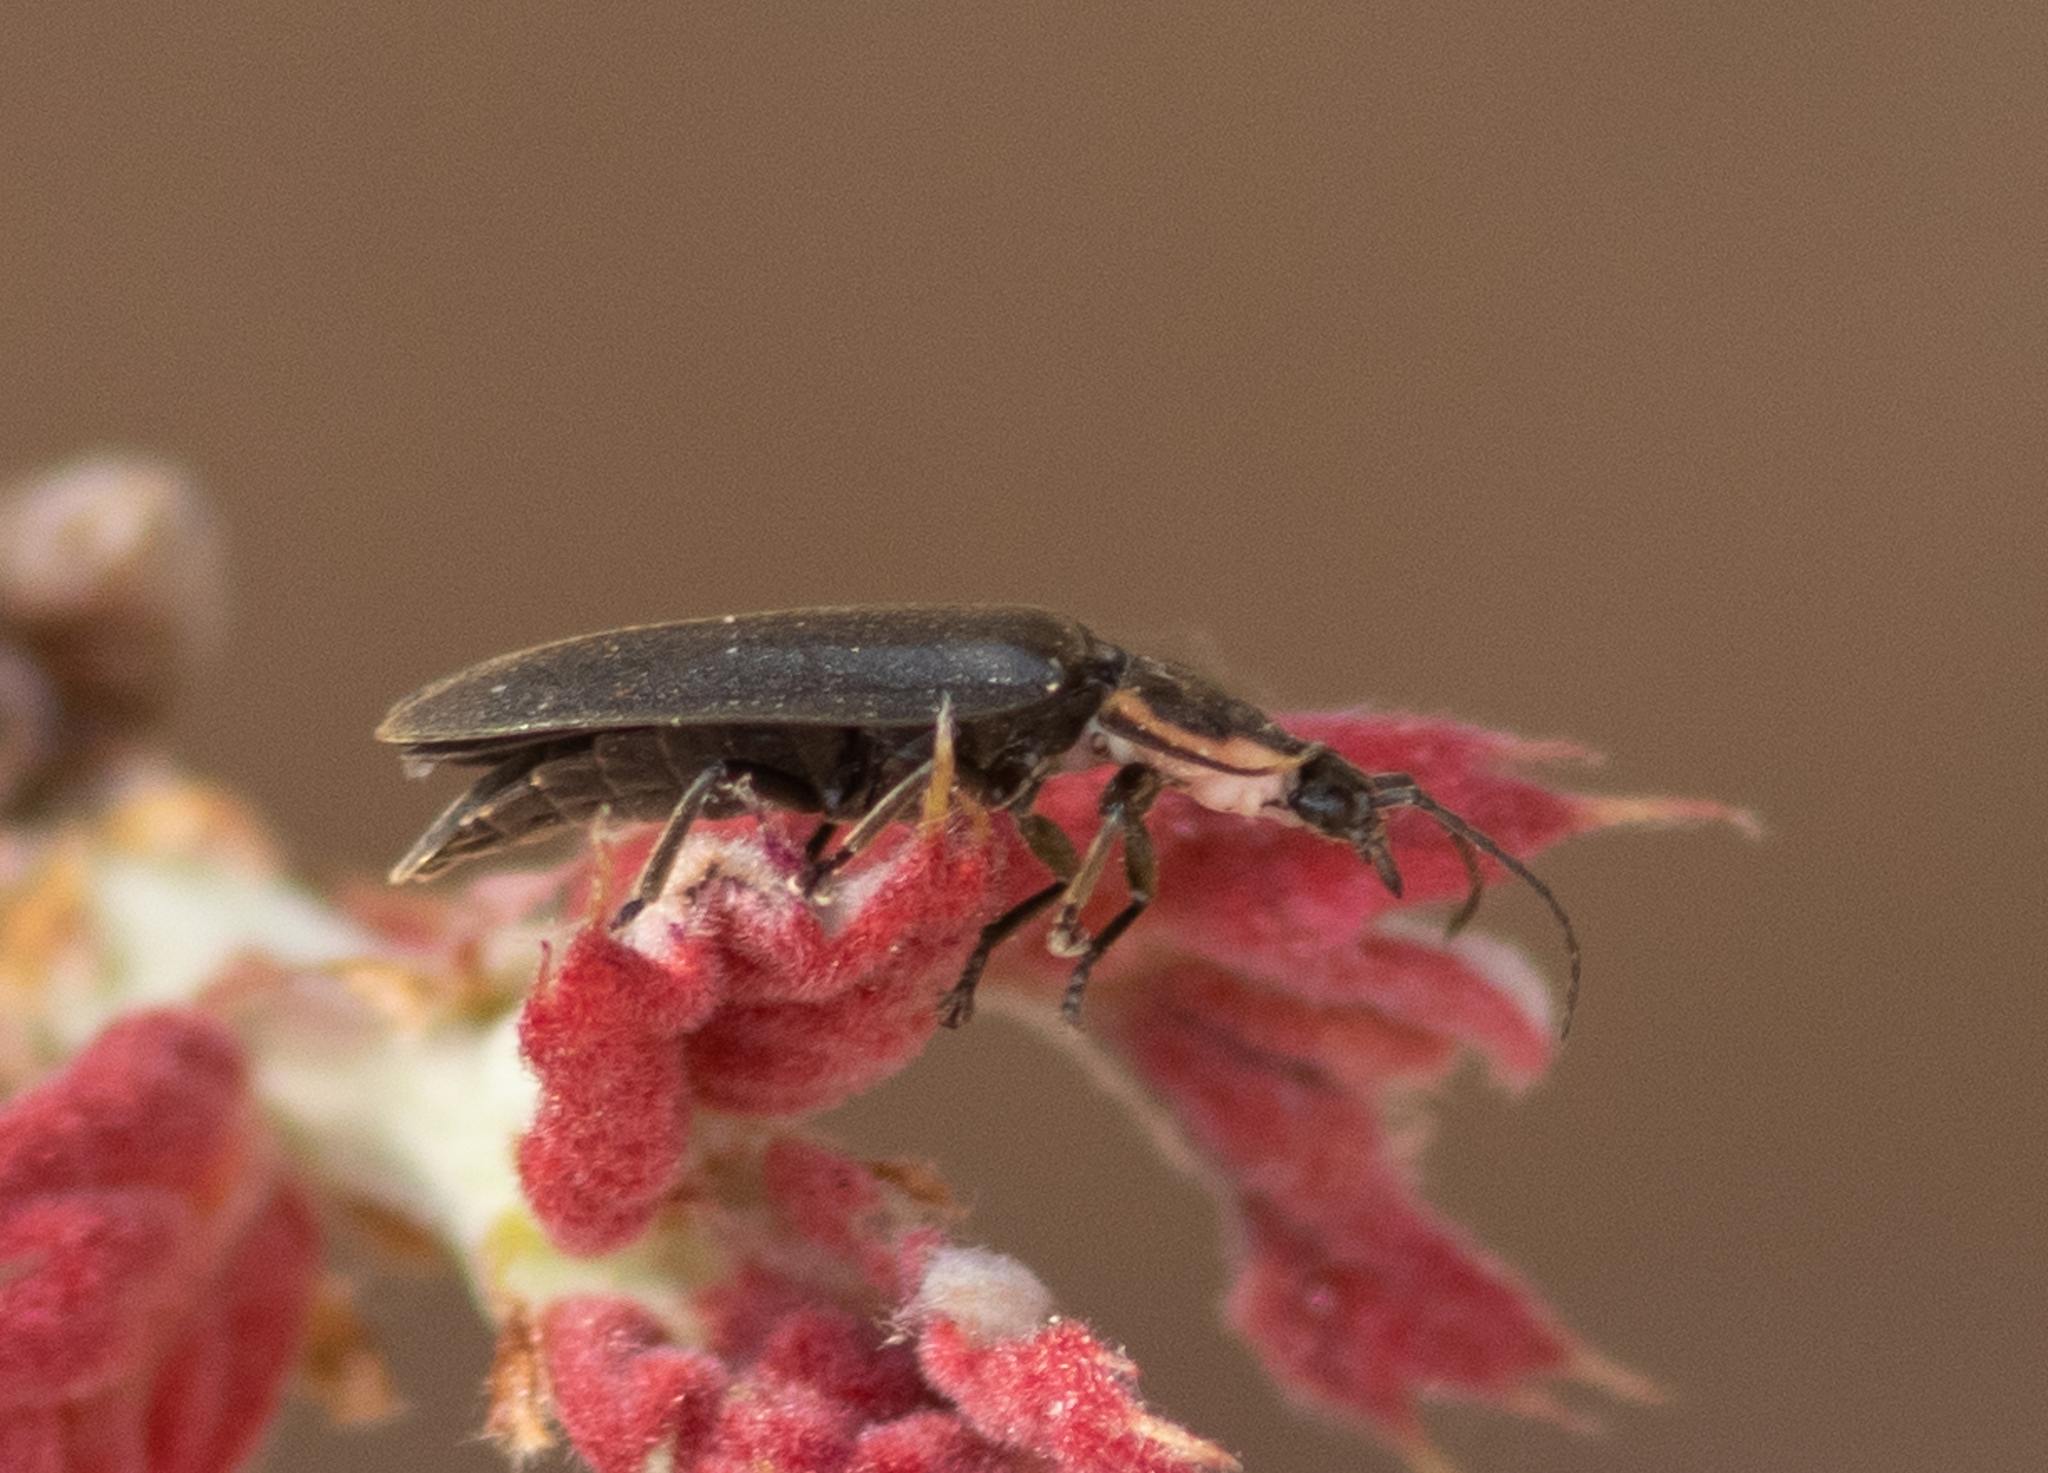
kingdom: Animalia
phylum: Arthropoda
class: Insecta
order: Coleoptera
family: Lampyridae
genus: Photinus
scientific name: Photinus corrusca
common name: Winter firefly
